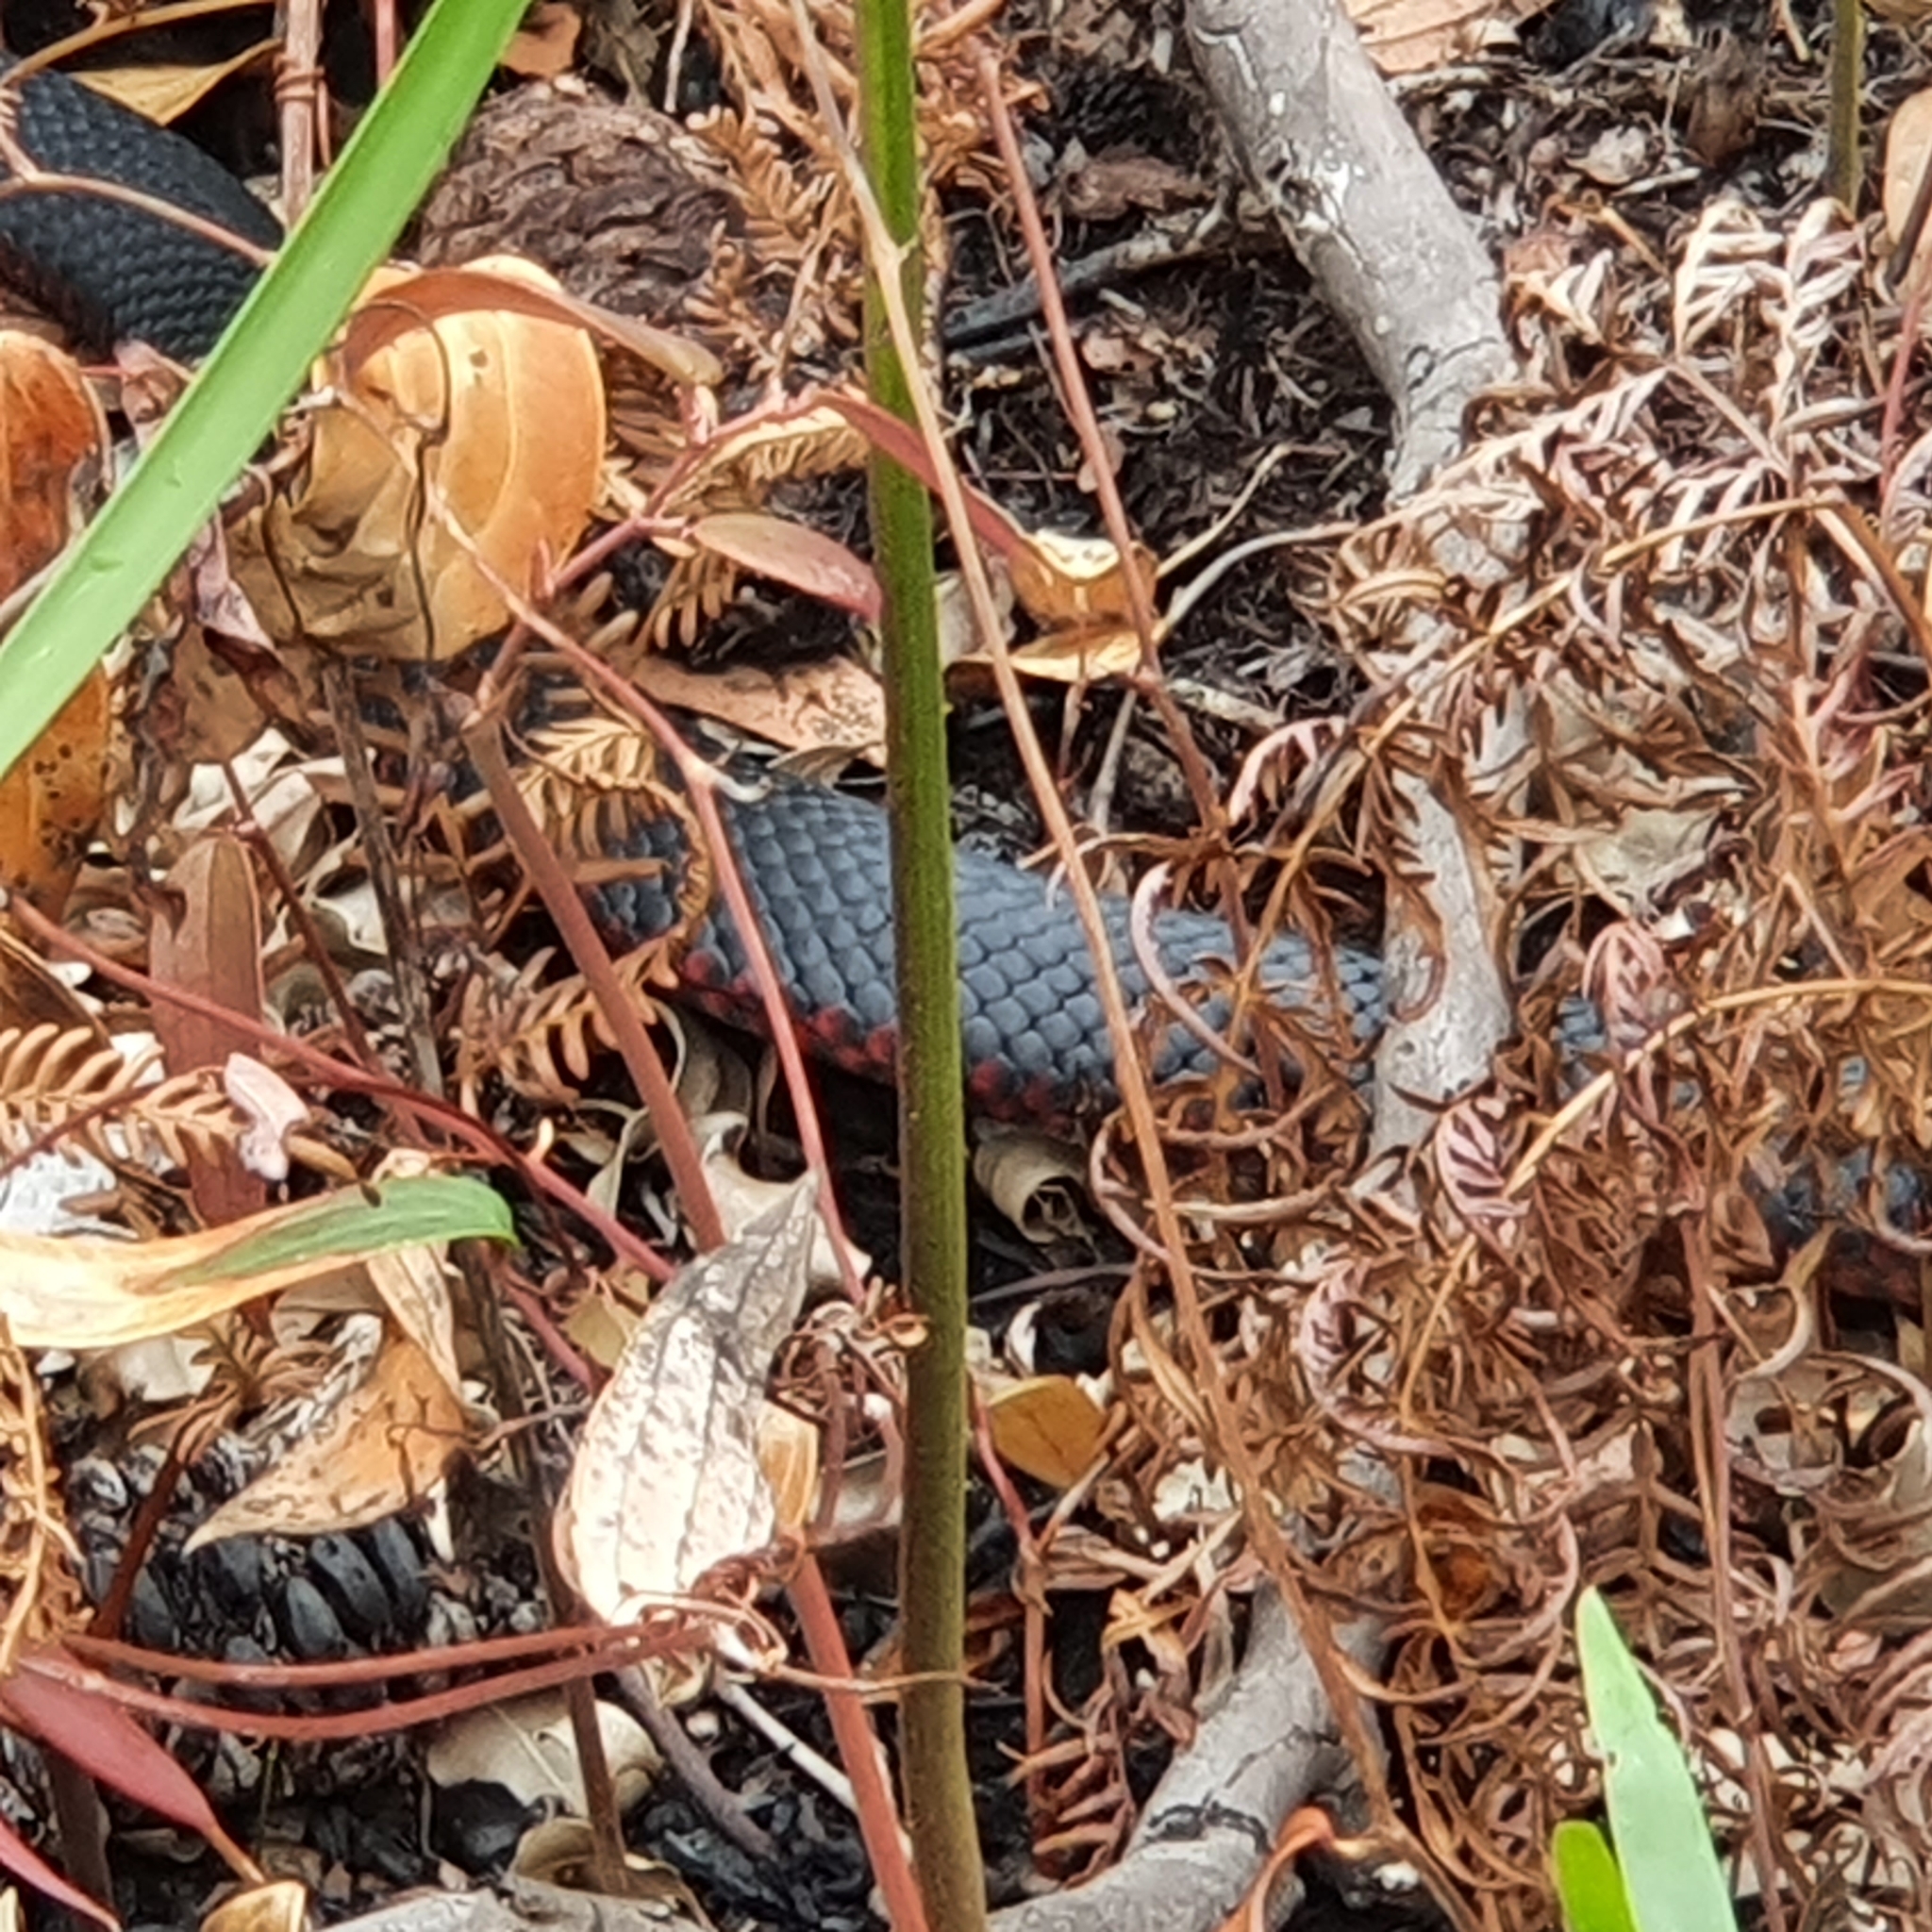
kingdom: Animalia
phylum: Chordata
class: Squamata
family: Elapidae
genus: Pseudechis
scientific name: Pseudechis porphyriacus
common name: Australian black snake
